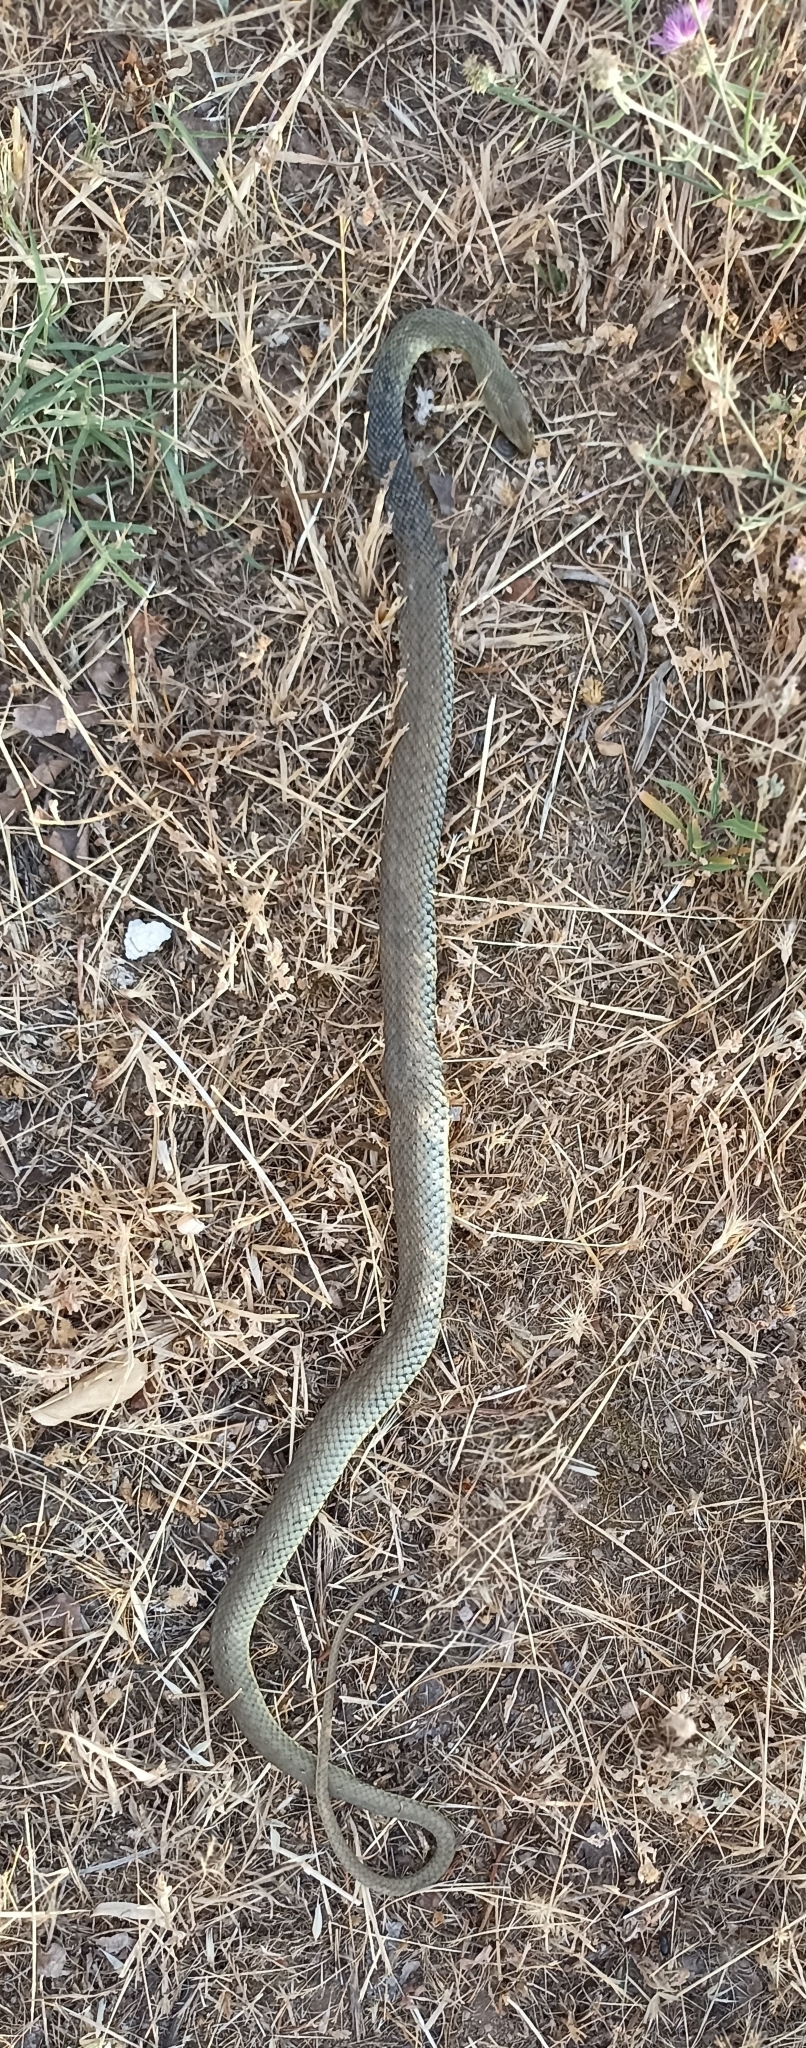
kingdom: Animalia
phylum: Chordata
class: Squamata
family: Psammophiidae
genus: Malpolon
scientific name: Malpolon monspessulanus
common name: Montpellier snake
